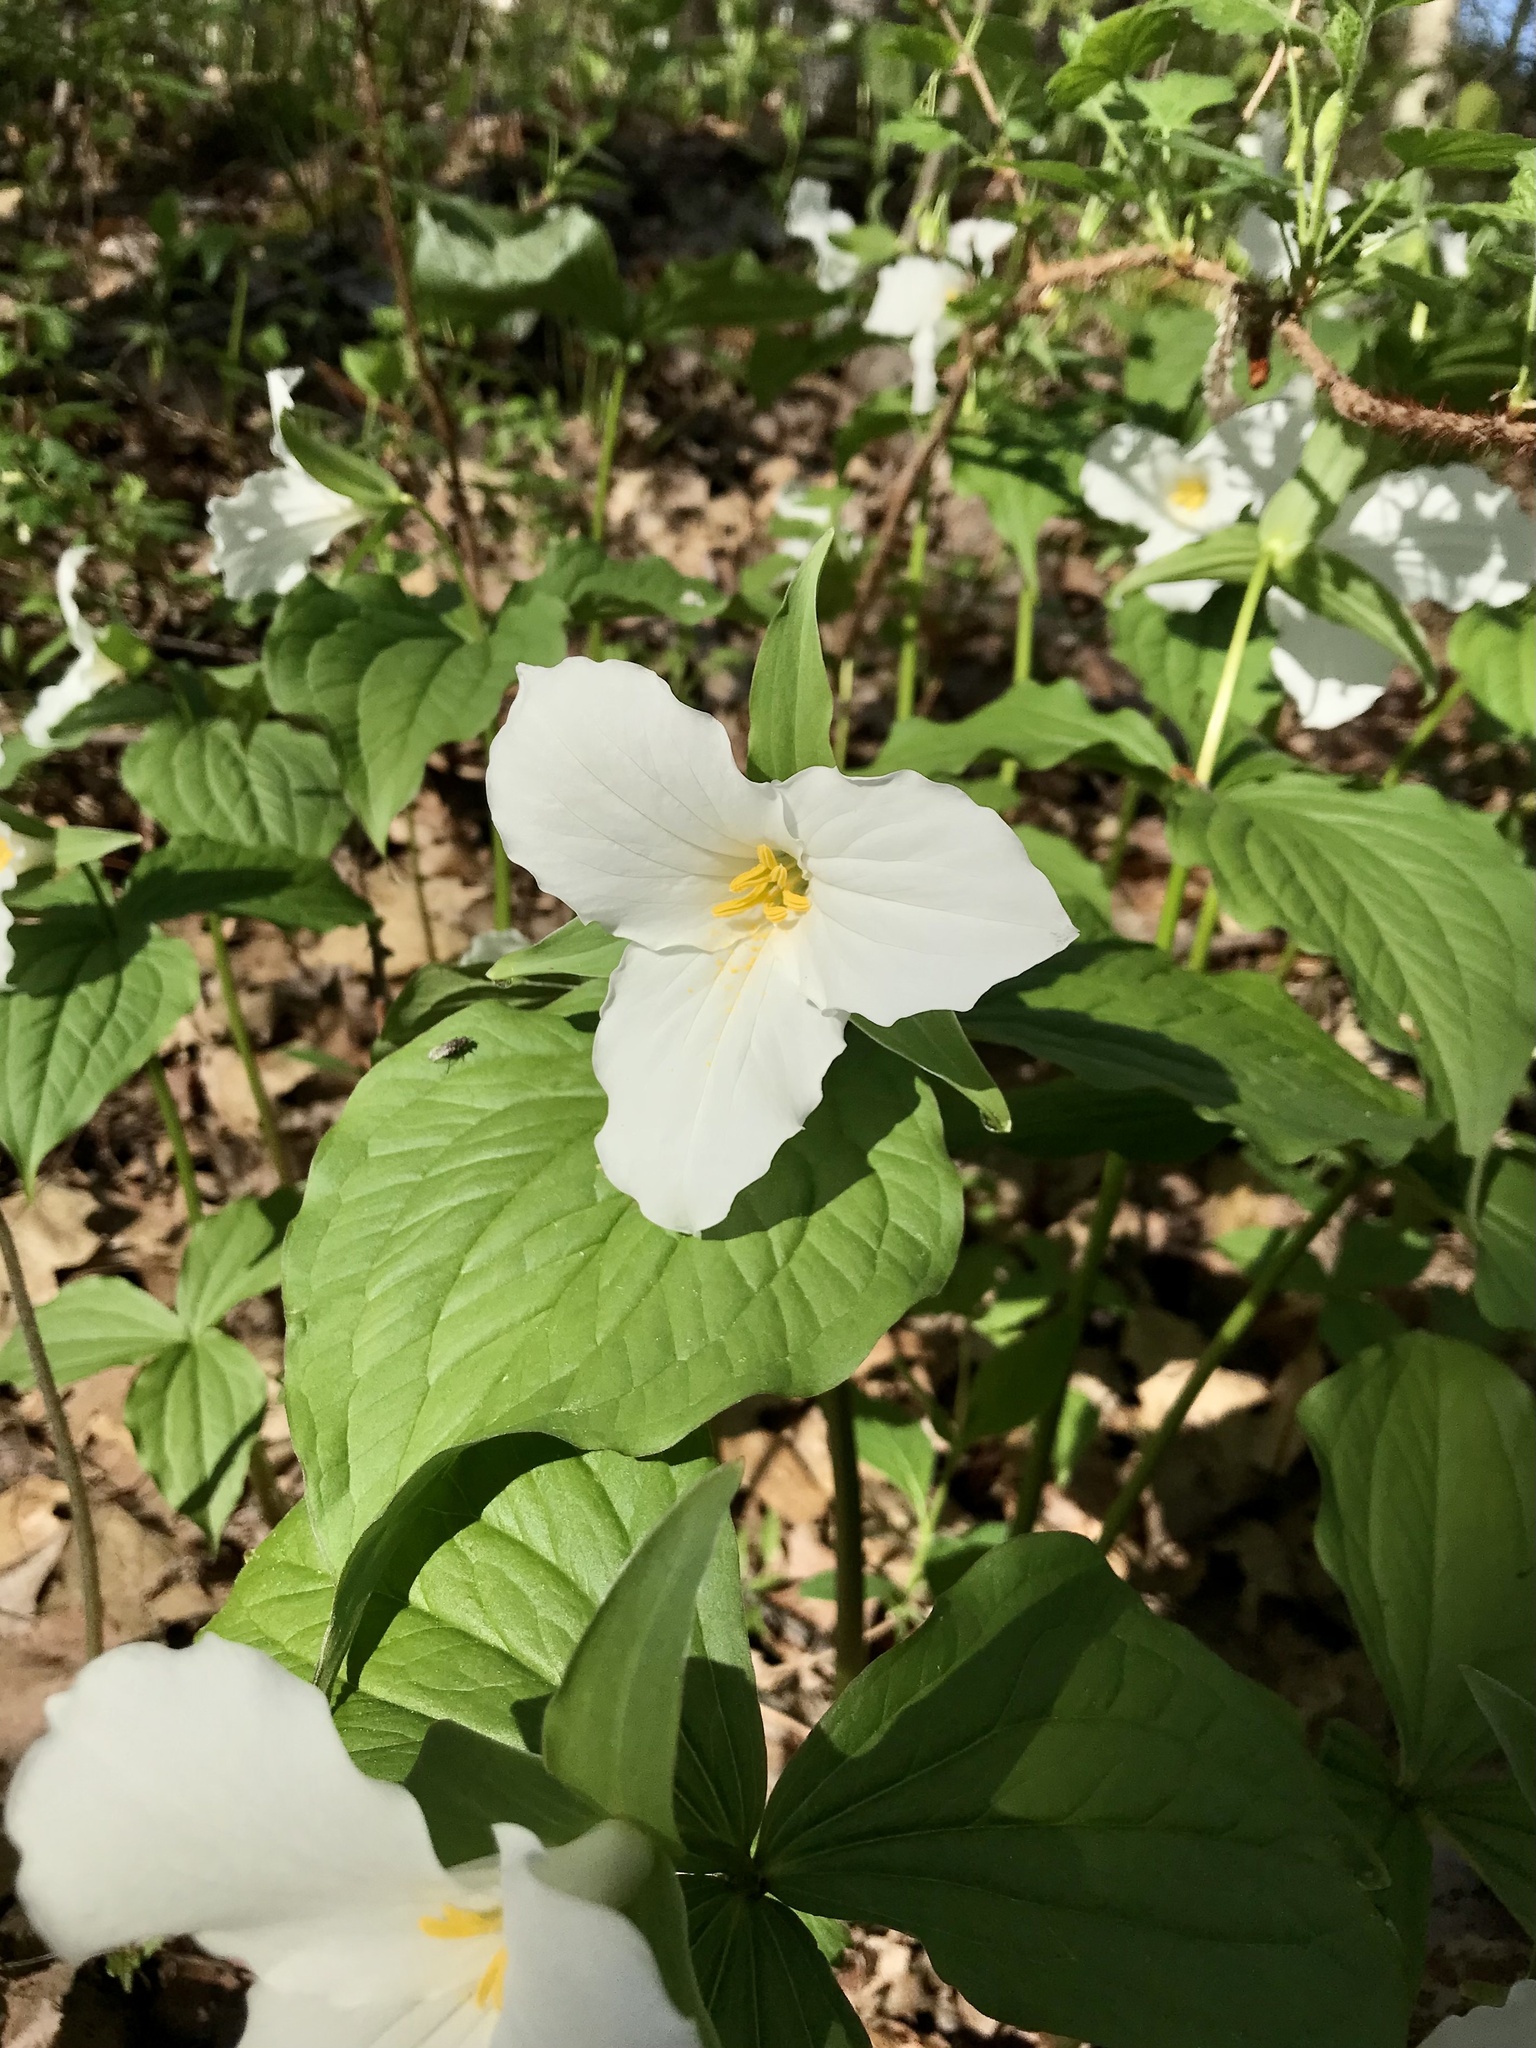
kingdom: Plantae
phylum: Tracheophyta
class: Liliopsida
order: Liliales
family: Melanthiaceae
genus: Trillium
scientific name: Trillium grandiflorum
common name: Great white trillium
